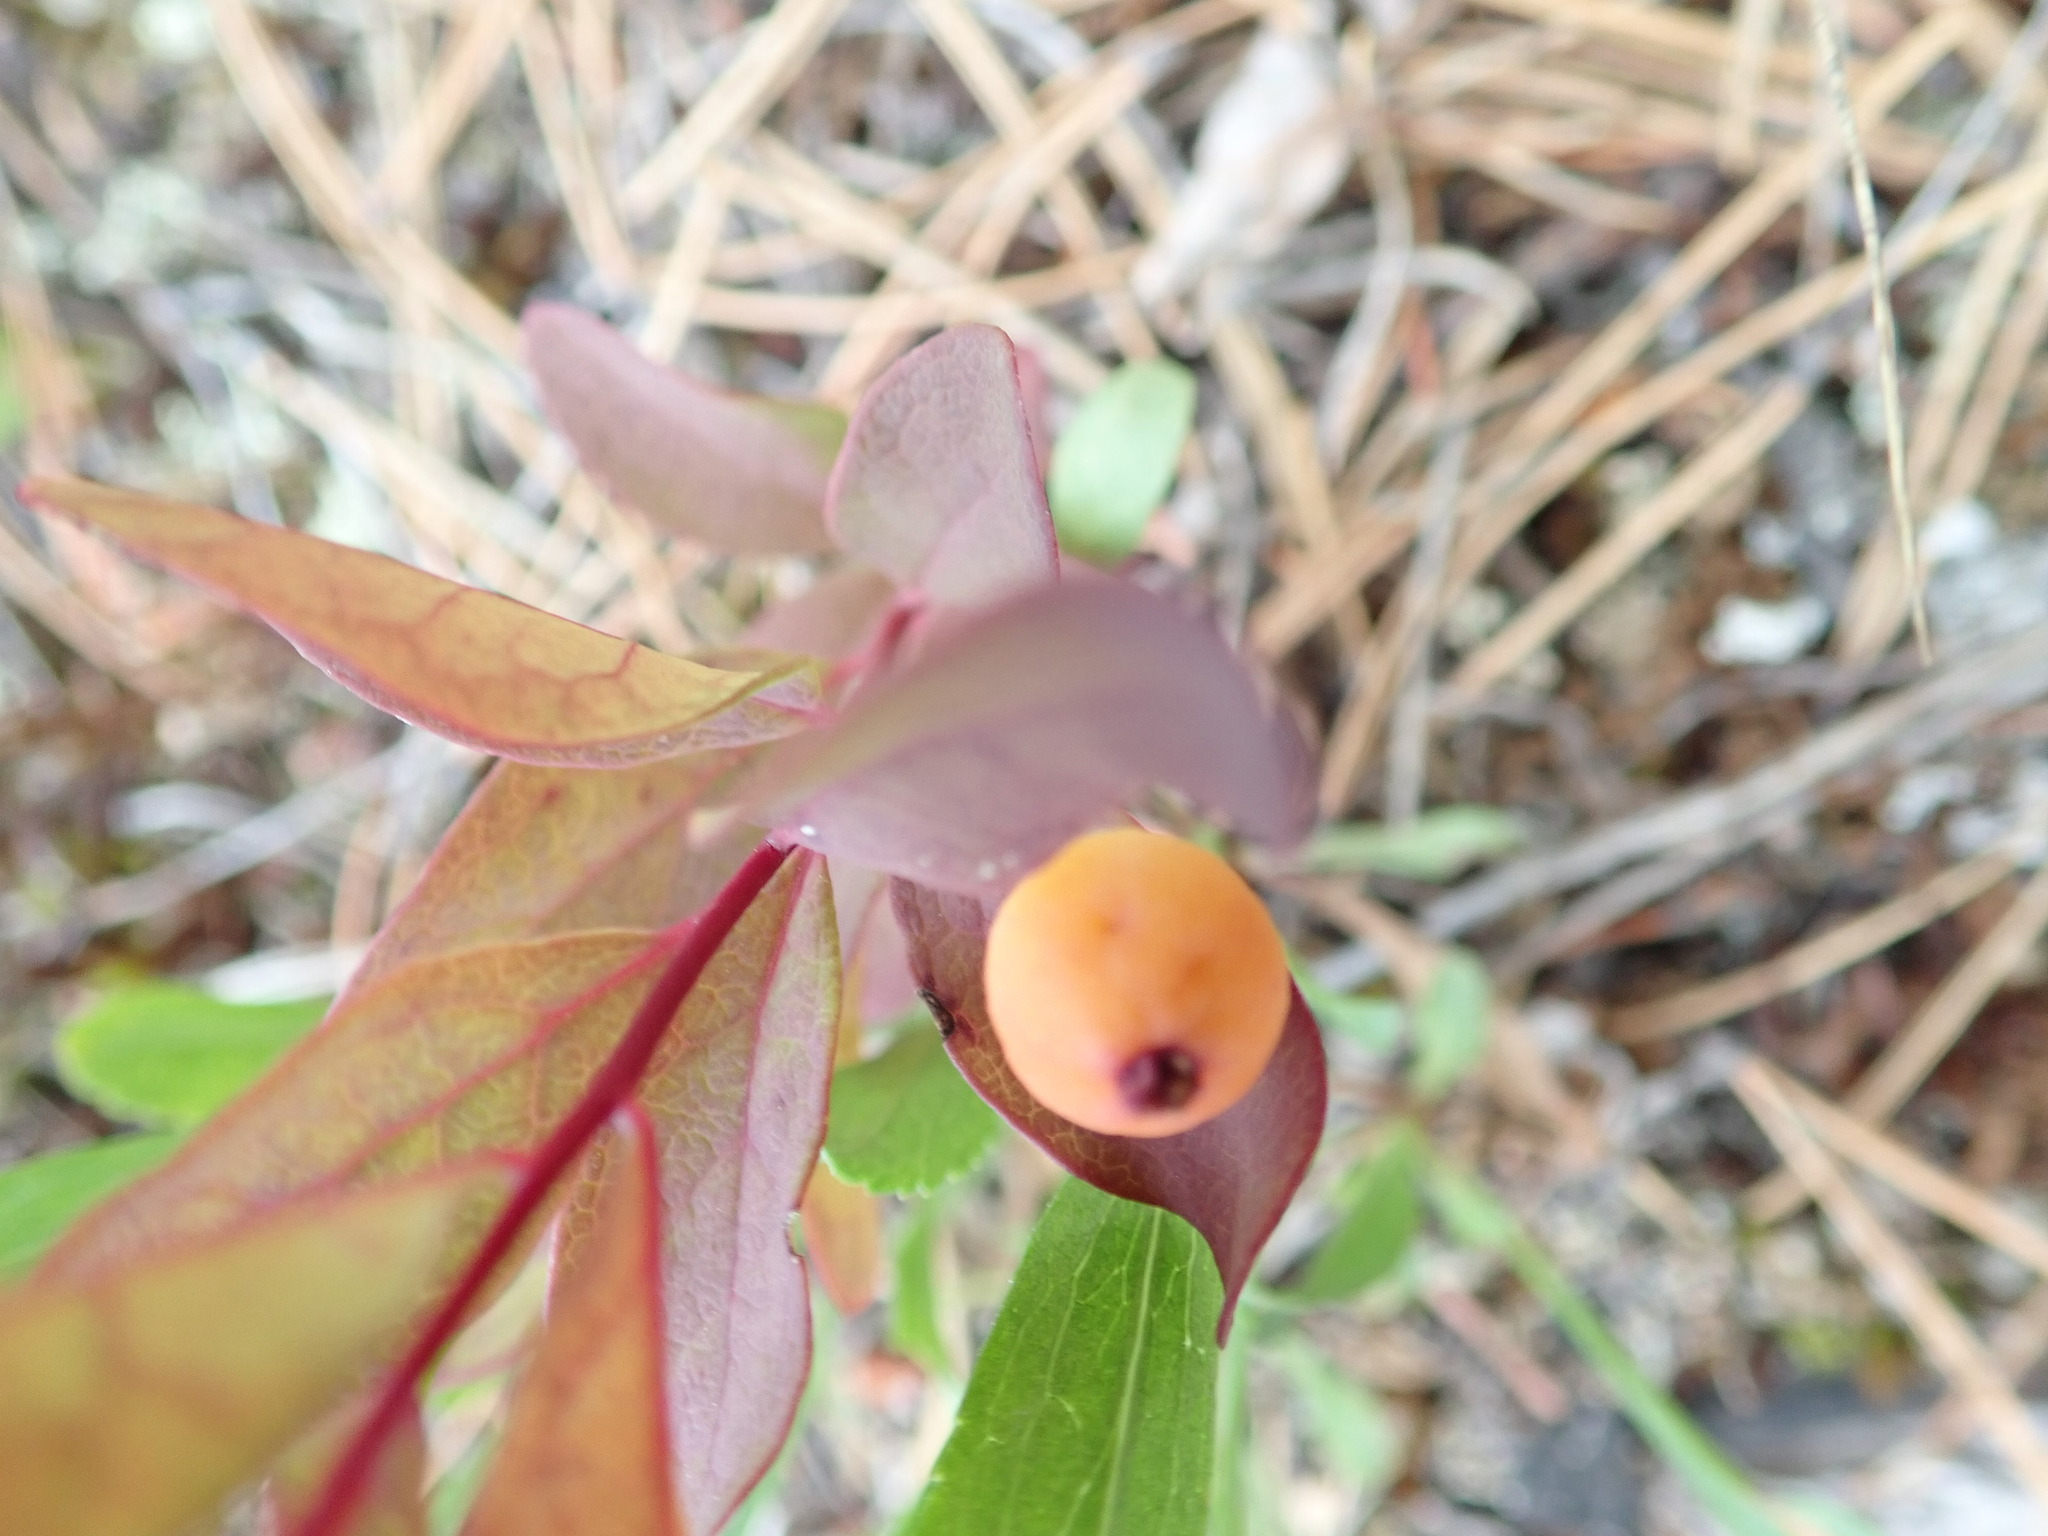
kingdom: Plantae
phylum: Tracheophyta
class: Magnoliopsida
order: Santalales
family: Comandraceae
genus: Geocaulon
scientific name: Geocaulon lividum
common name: Earthberry
